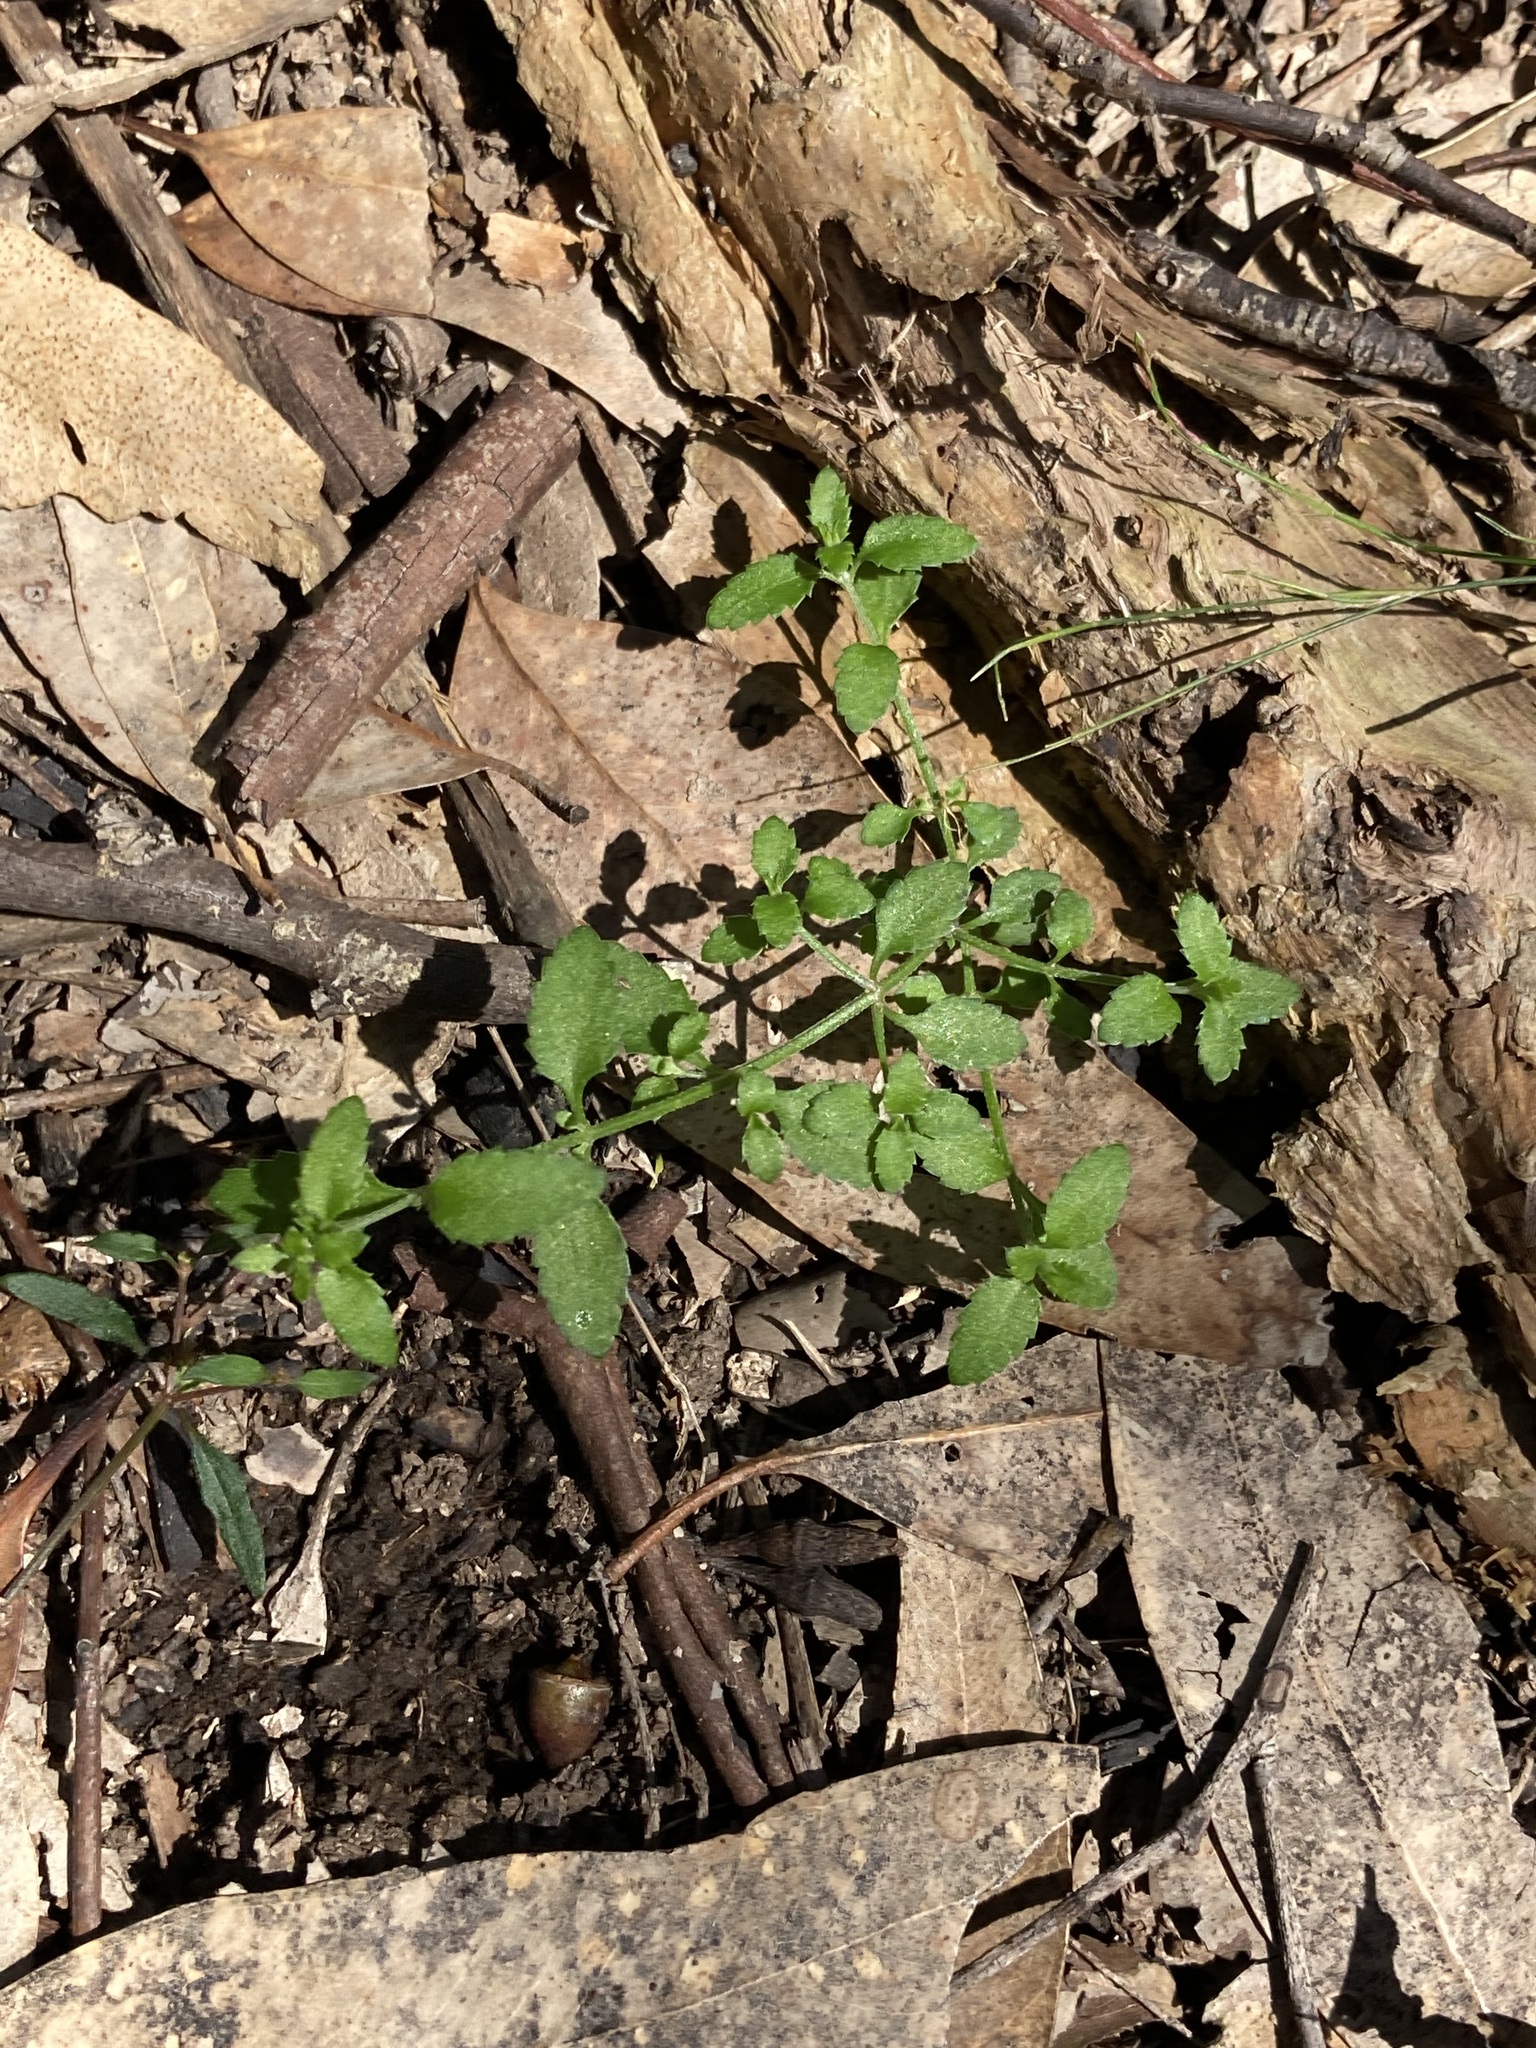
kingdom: Plantae
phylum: Tracheophyta
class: Magnoliopsida
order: Saxifragales
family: Haloragaceae
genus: Gonocarpus
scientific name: Gonocarpus humilis
